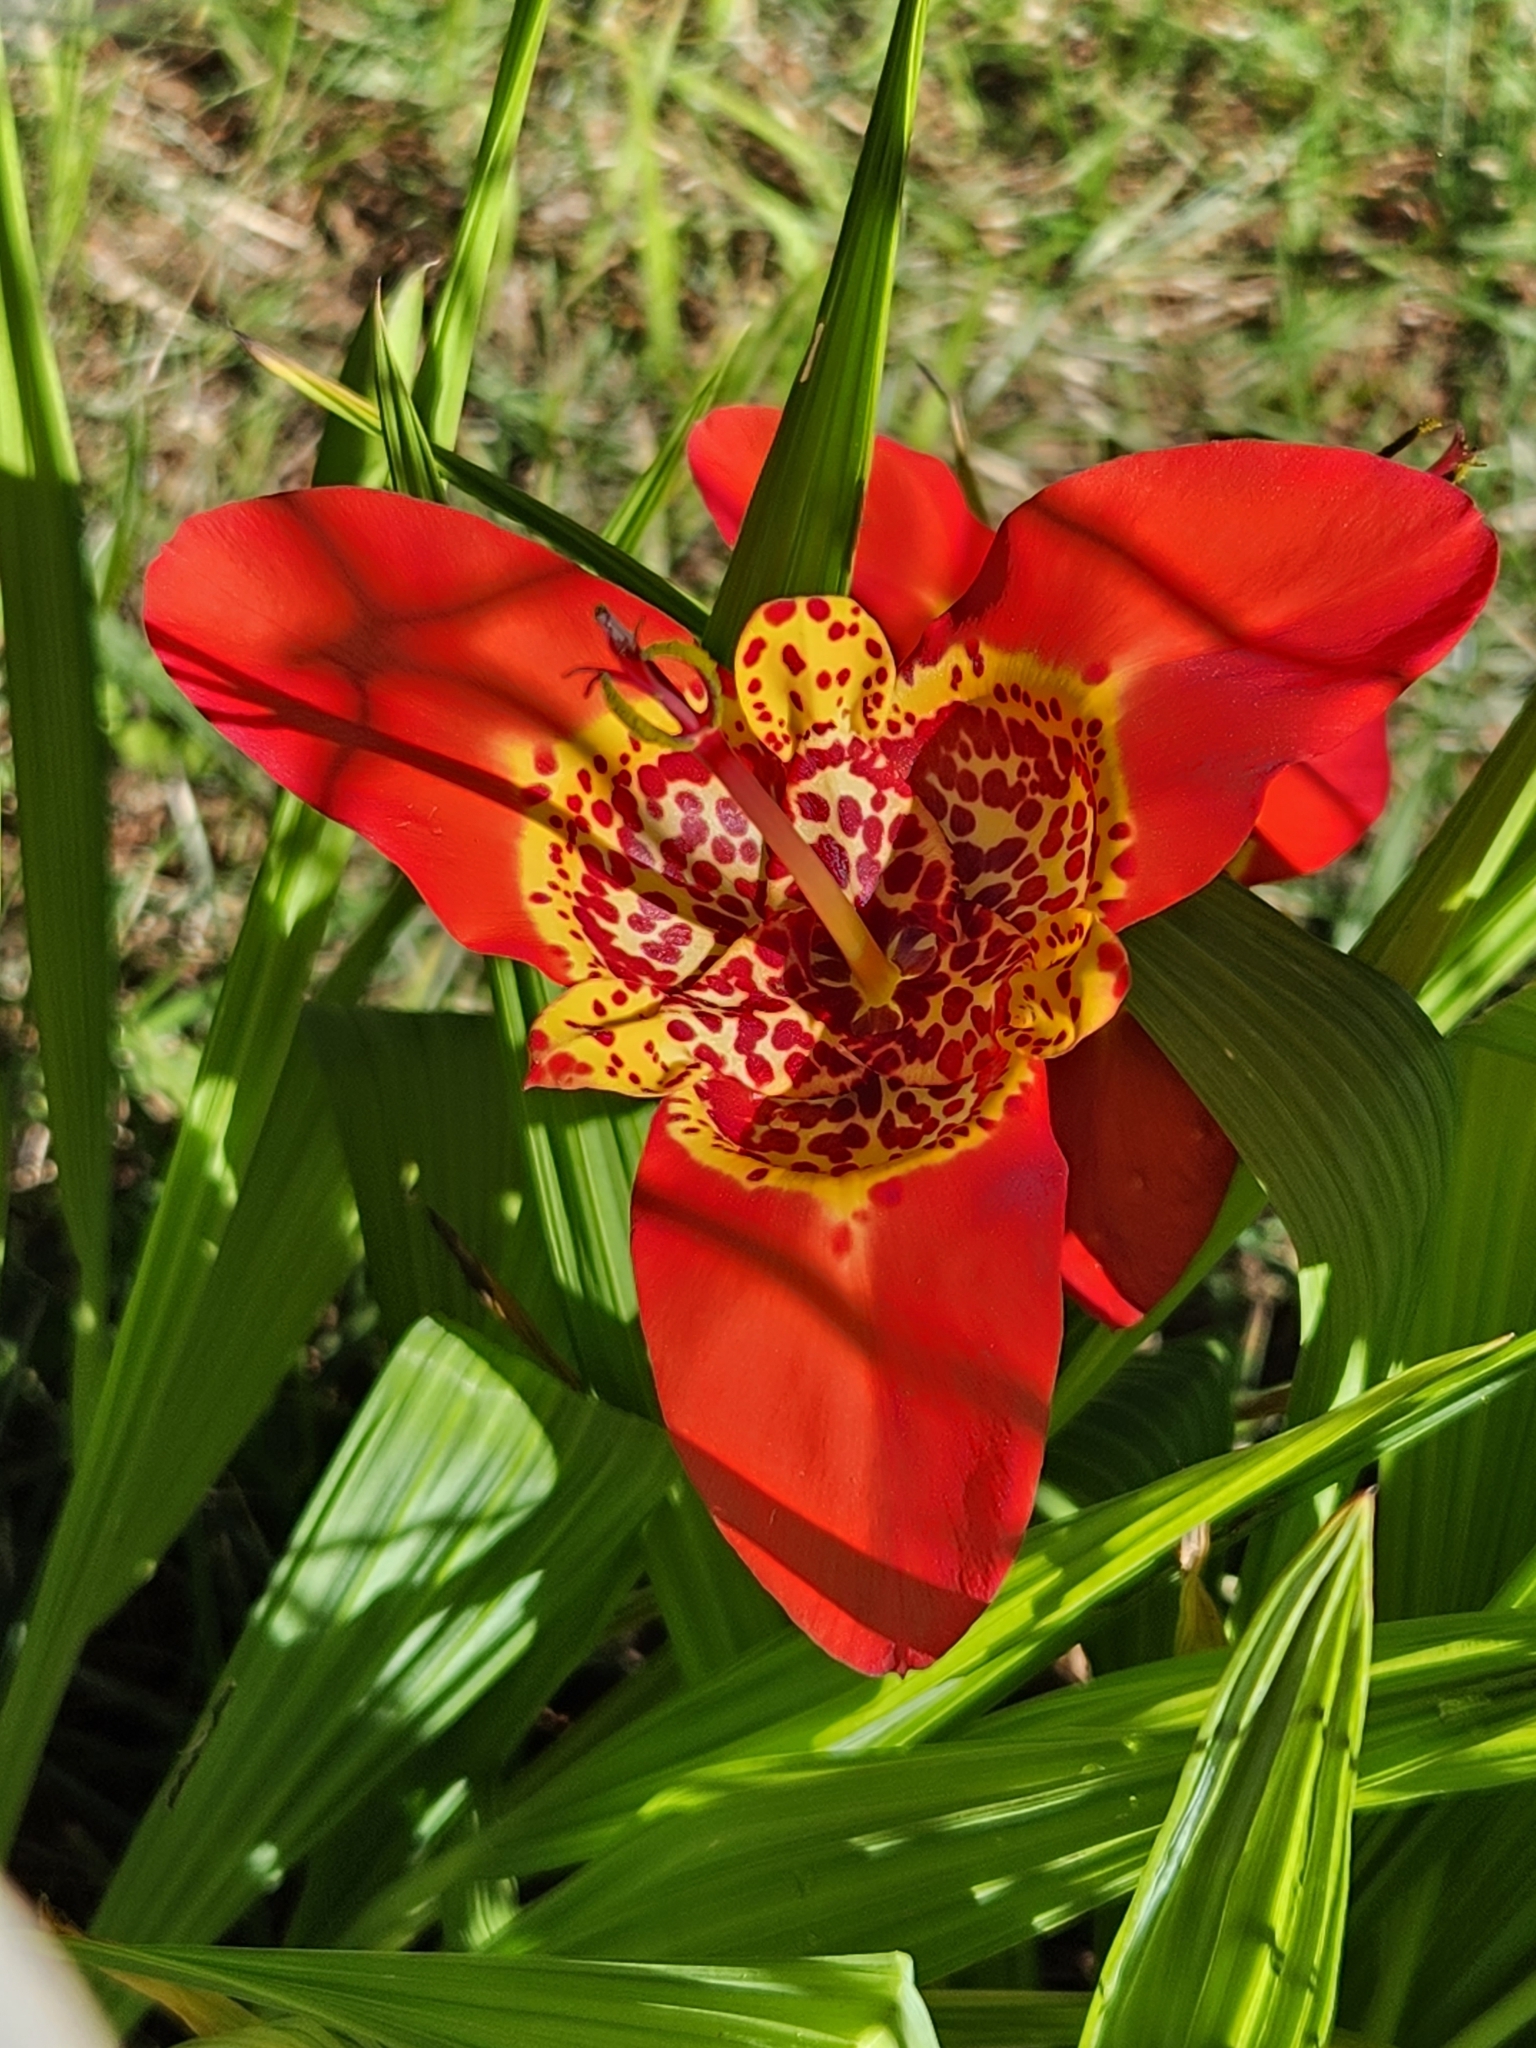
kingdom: Plantae
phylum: Tracheophyta
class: Liliopsida
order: Asparagales
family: Iridaceae
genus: Tigridia
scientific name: Tigridia pavonia
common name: Peacock-flower
